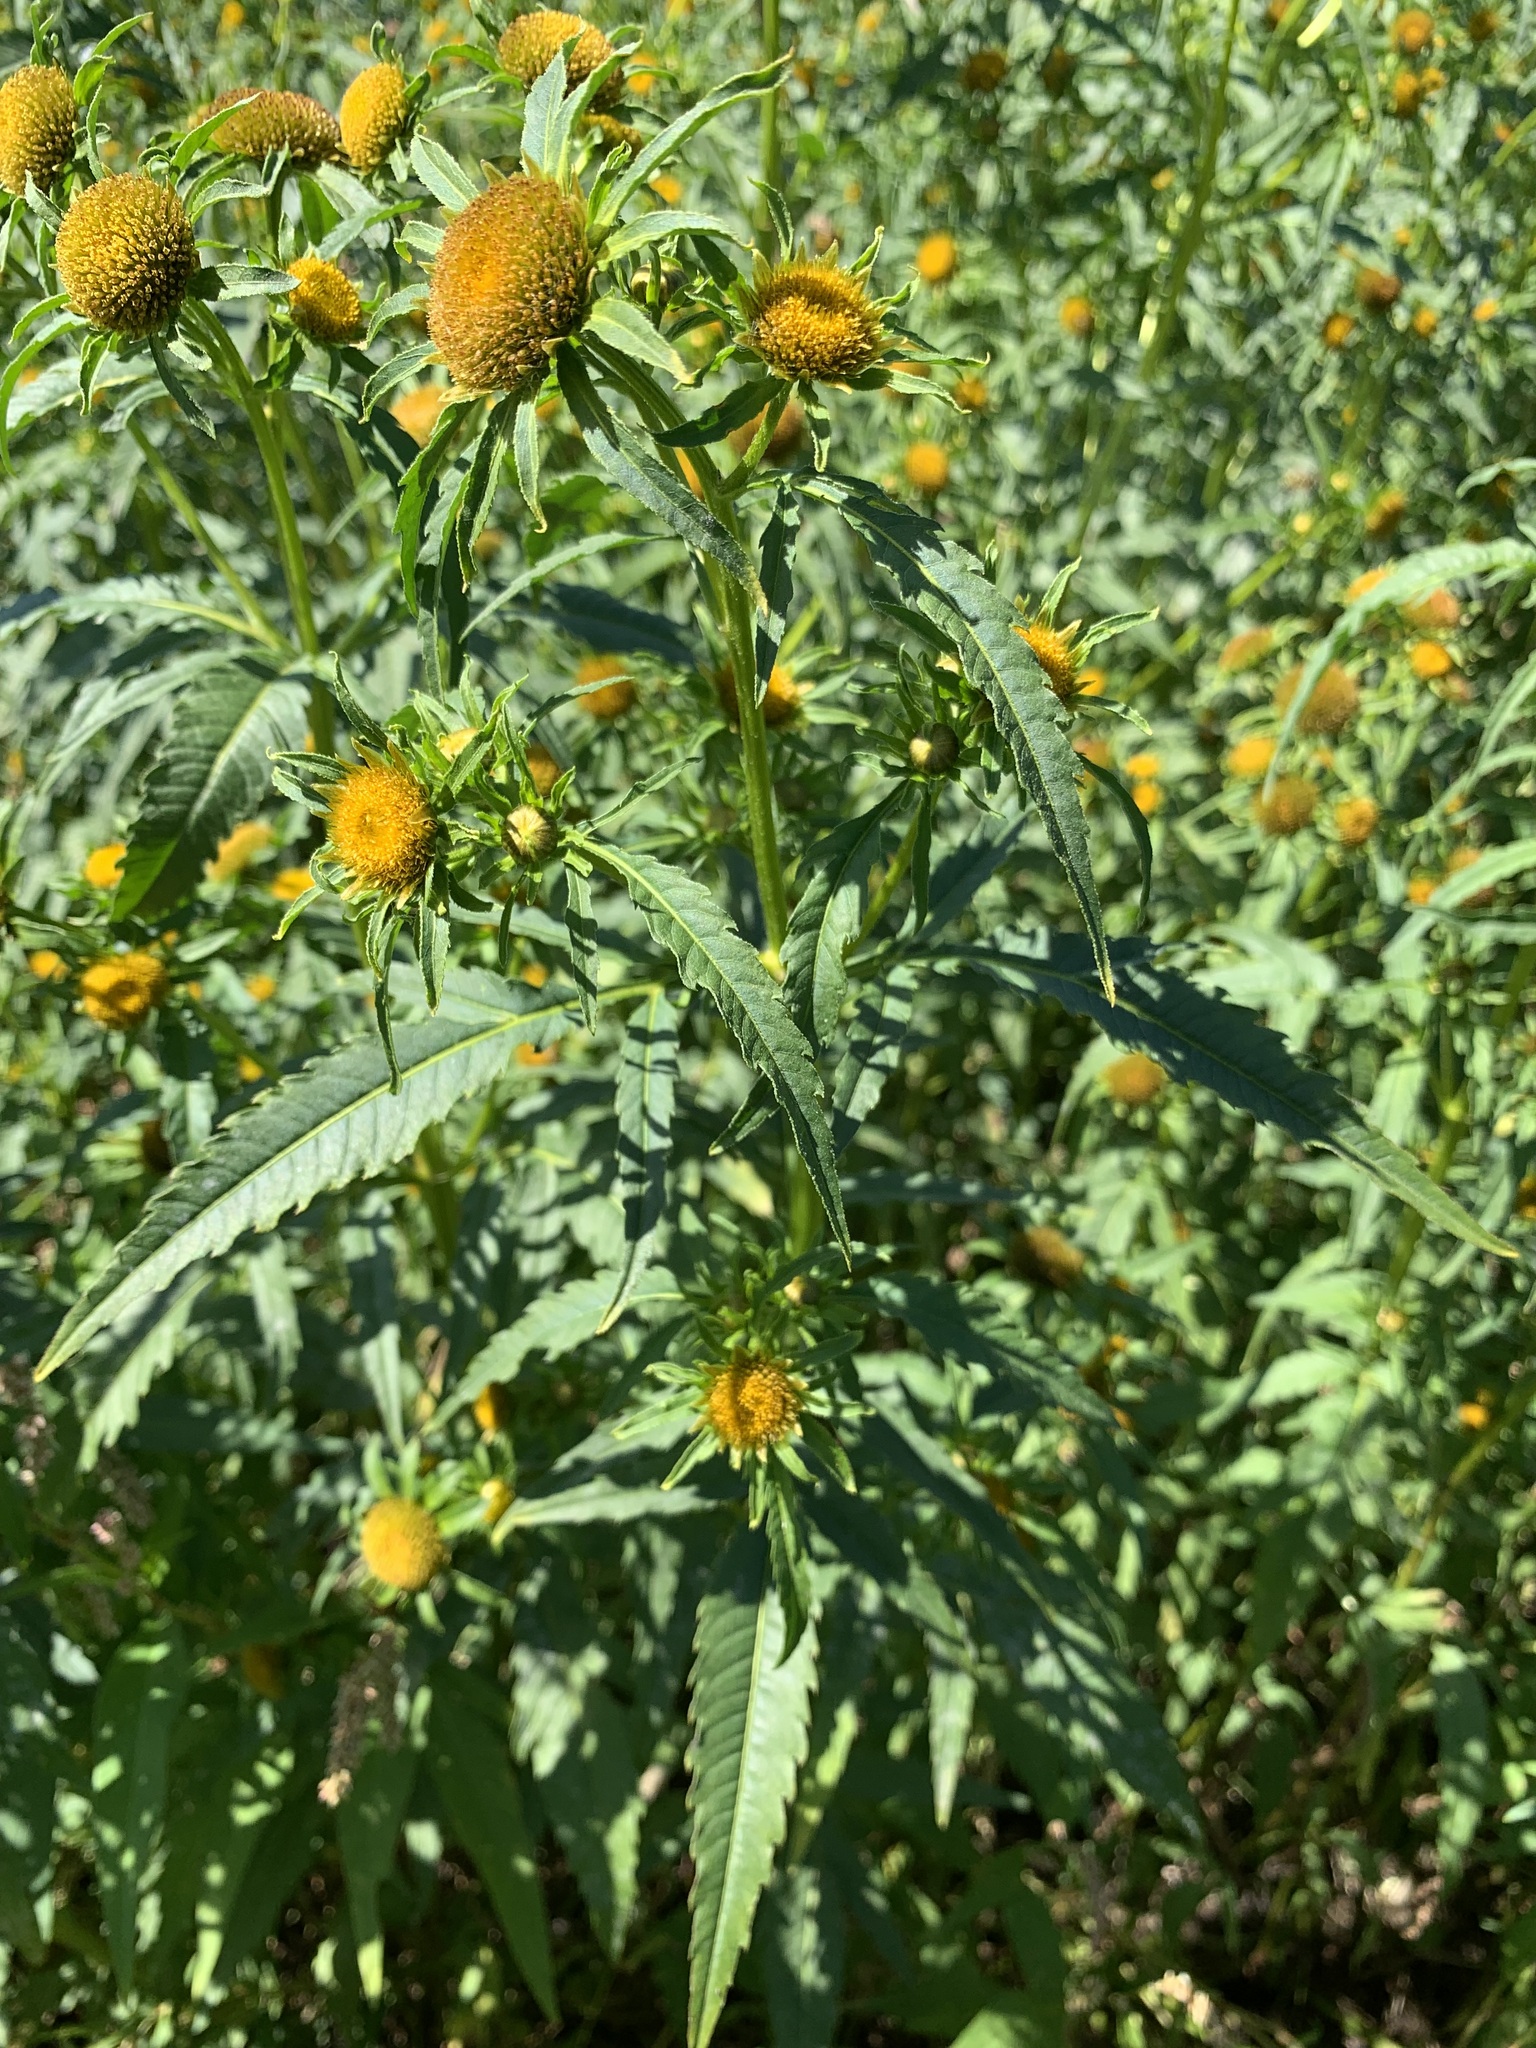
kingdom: Plantae
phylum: Tracheophyta
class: Magnoliopsida
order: Asterales
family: Asteraceae
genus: Bidens
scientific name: Bidens radiata
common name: Radiating bur-marigold
